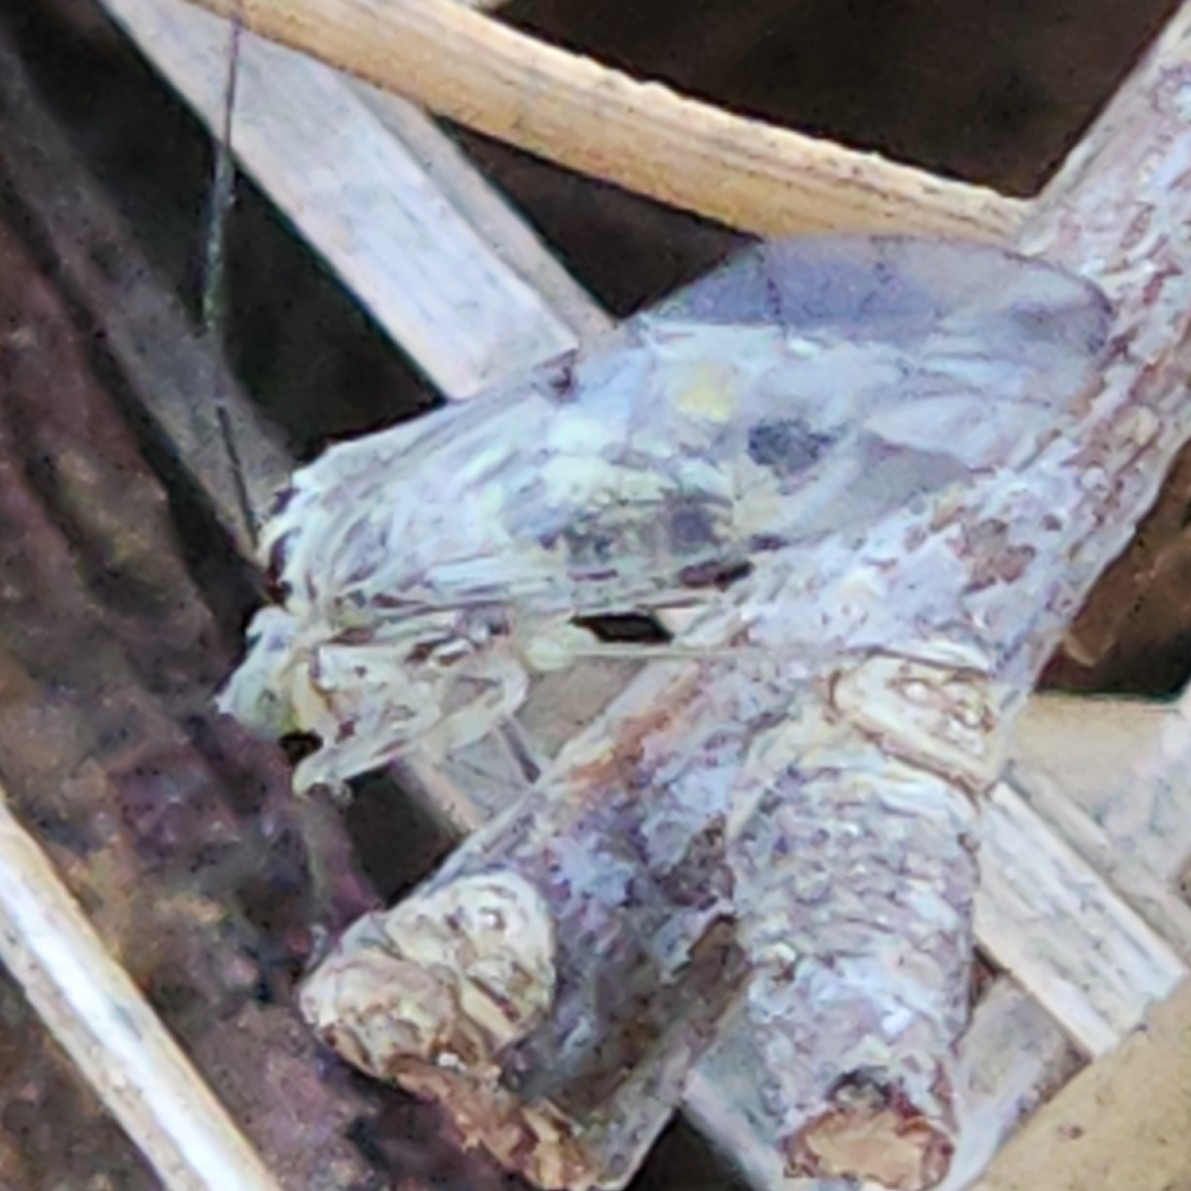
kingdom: Animalia
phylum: Arthropoda
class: Insecta
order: Psocodea
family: Psocidae
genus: Metylophorus
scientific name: Metylophorus novaescotiae
